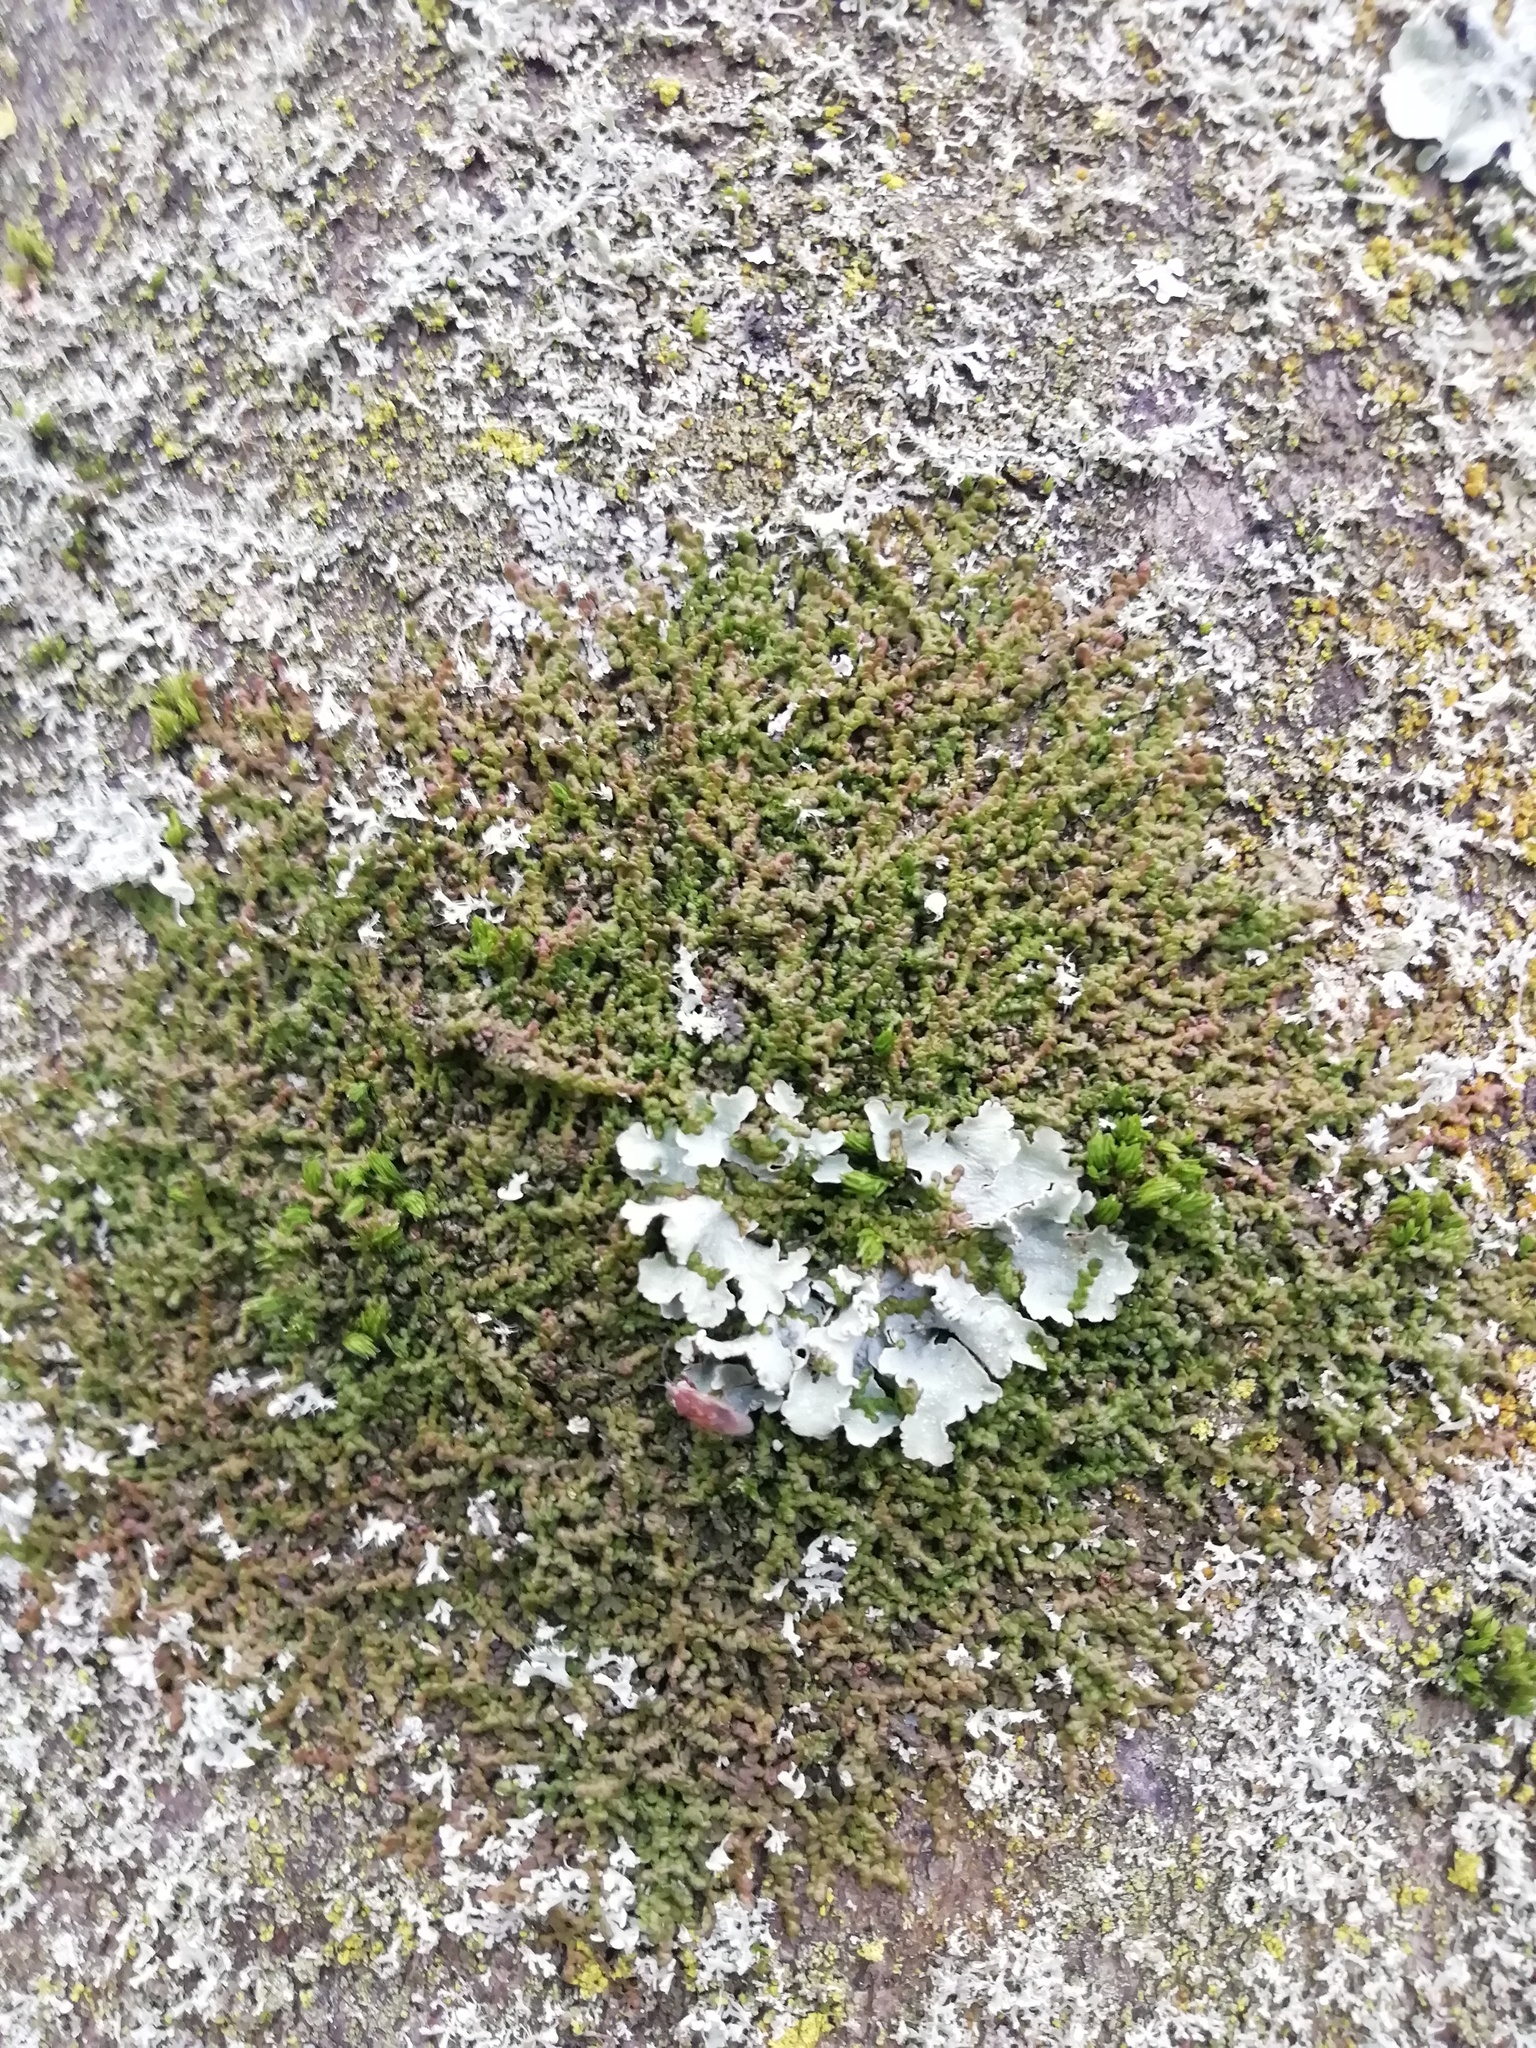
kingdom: Plantae
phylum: Marchantiophyta
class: Jungermanniopsida
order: Porellales
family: Frullaniaceae
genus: Frullania
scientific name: Frullania dilatata
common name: Dilated scalewort
